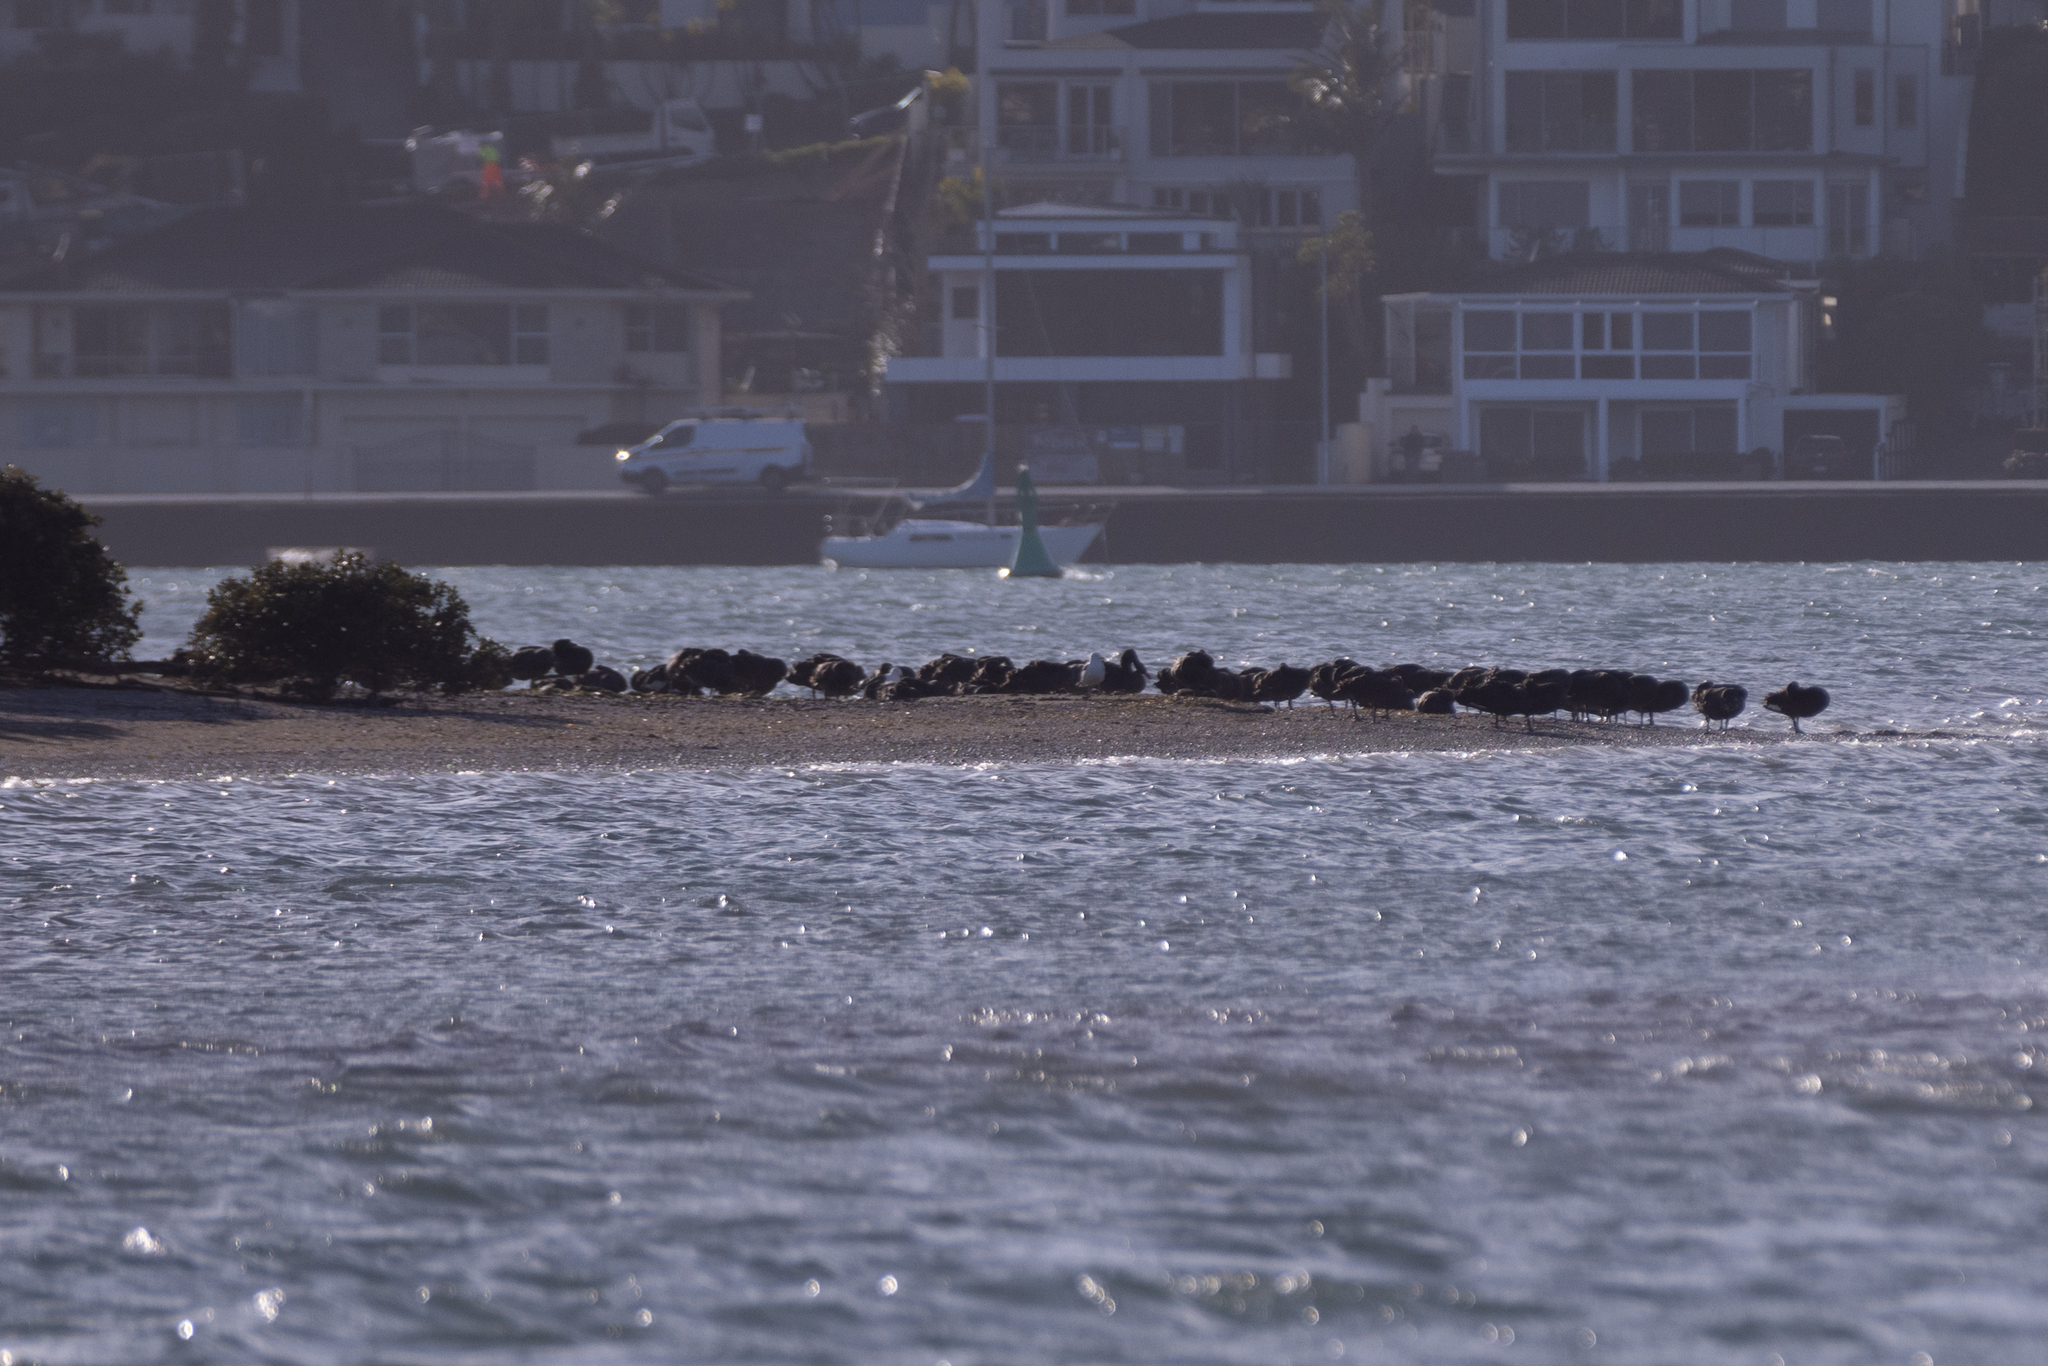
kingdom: Animalia
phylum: Chordata
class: Aves
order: Anseriformes
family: Anatidae
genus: Cygnus
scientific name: Cygnus atratus
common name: Black swan
